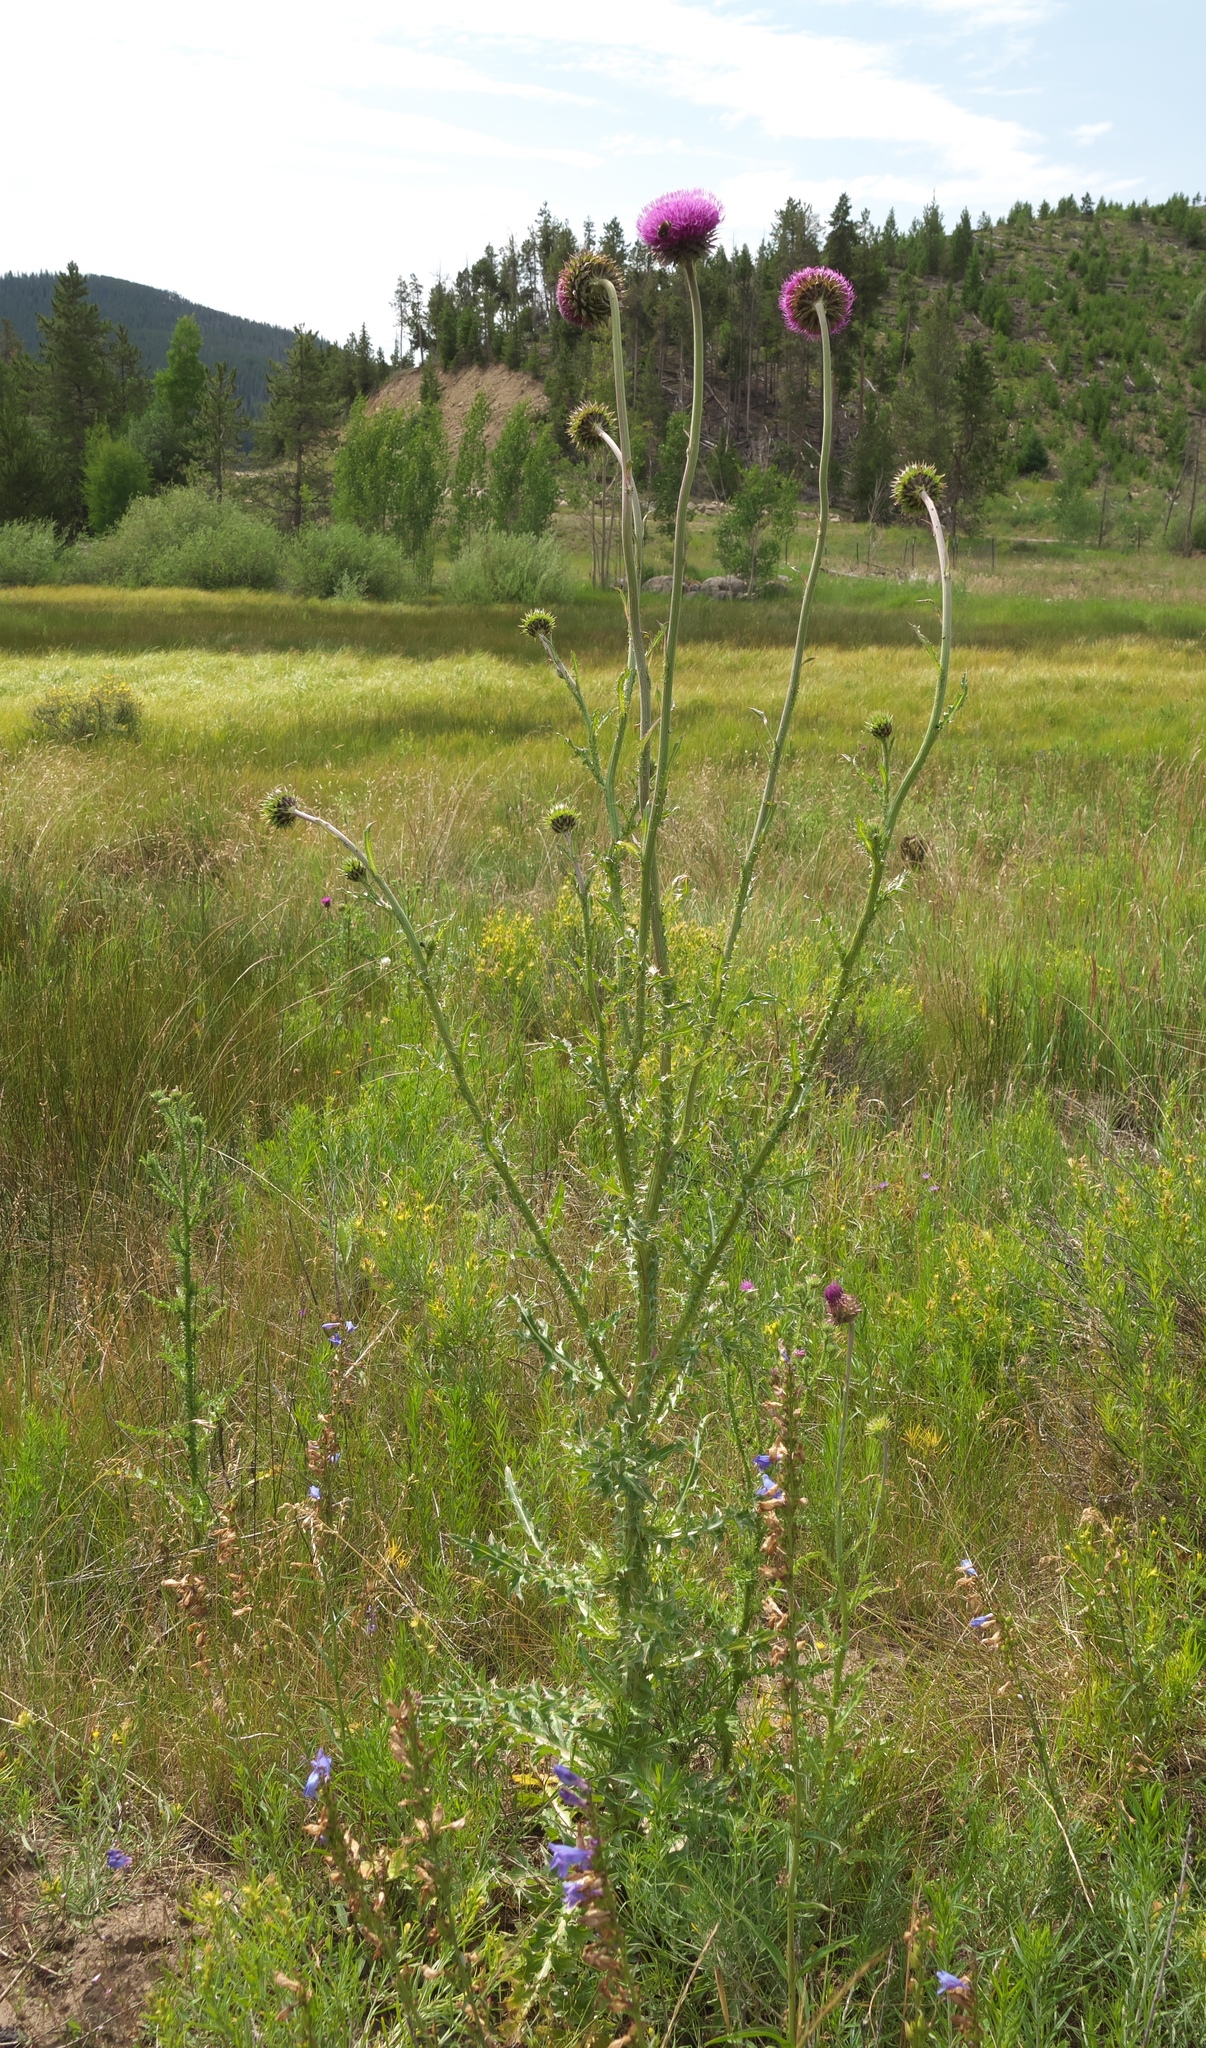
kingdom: Plantae
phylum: Tracheophyta
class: Magnoliopsida
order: Asterales
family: Asteraceae
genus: Carduus
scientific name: Carduus nutans
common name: Musk thistle
